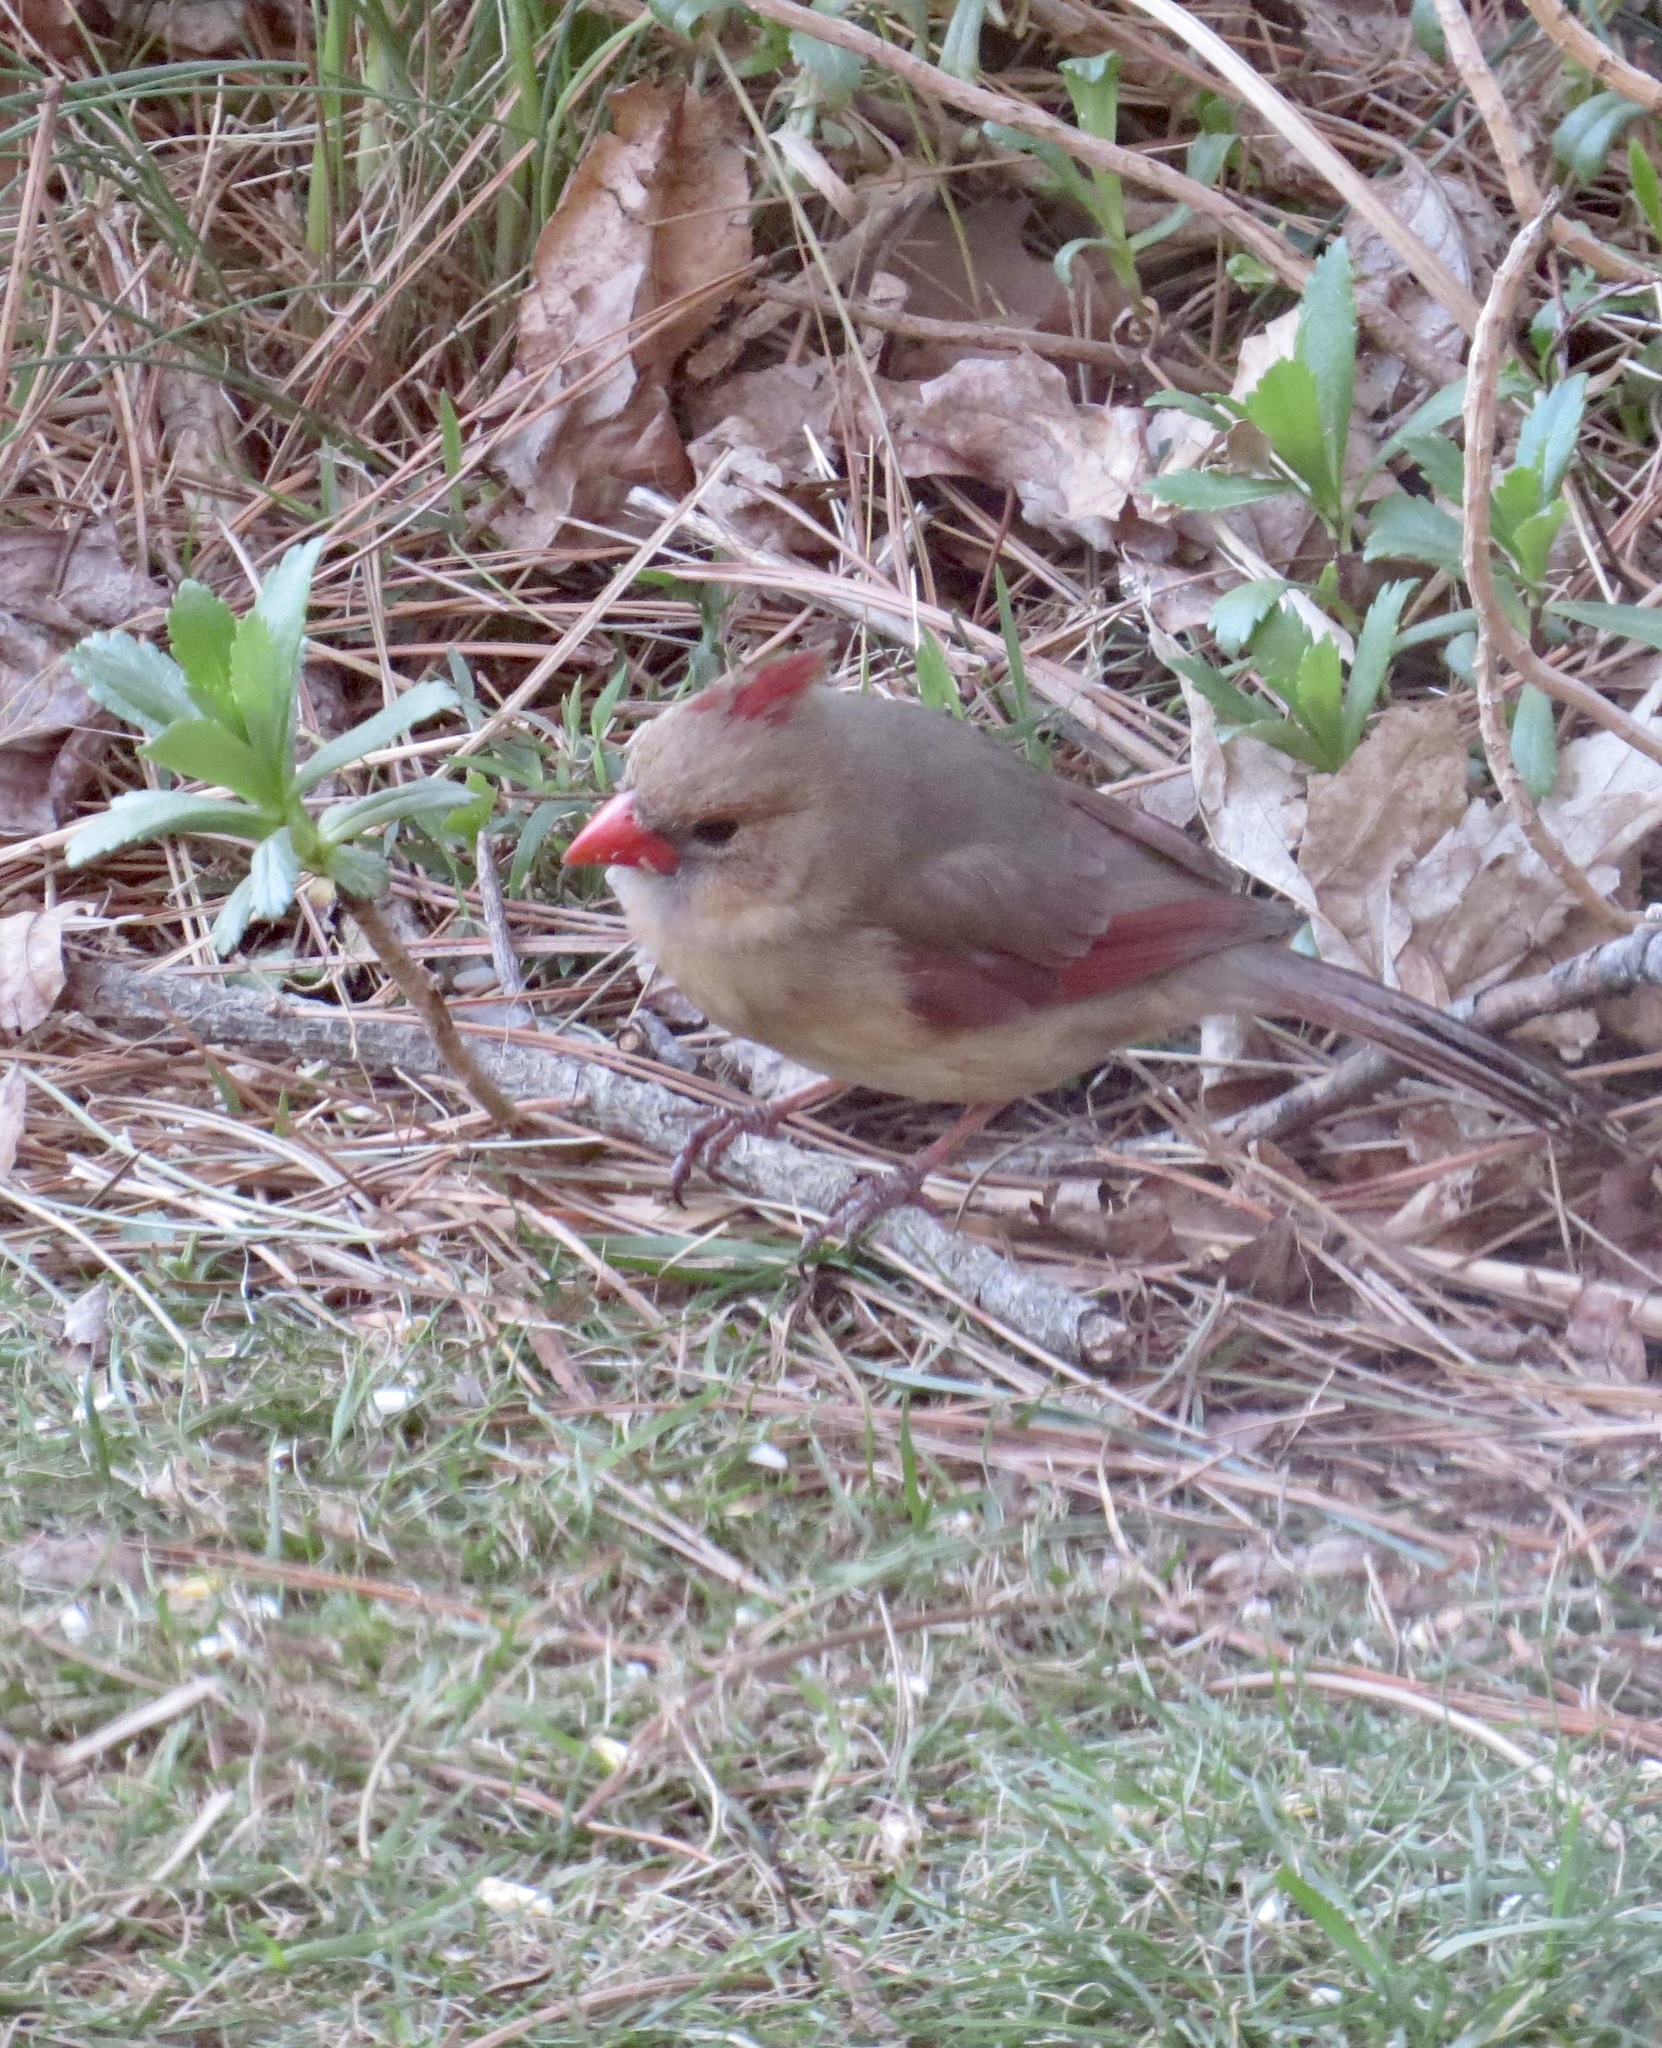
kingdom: Animalia
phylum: Chordata
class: Aves
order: Passeriformes
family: Cardinalidae
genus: Cardinalis
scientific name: Cardinalis cardinalis
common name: Northern cardinal
